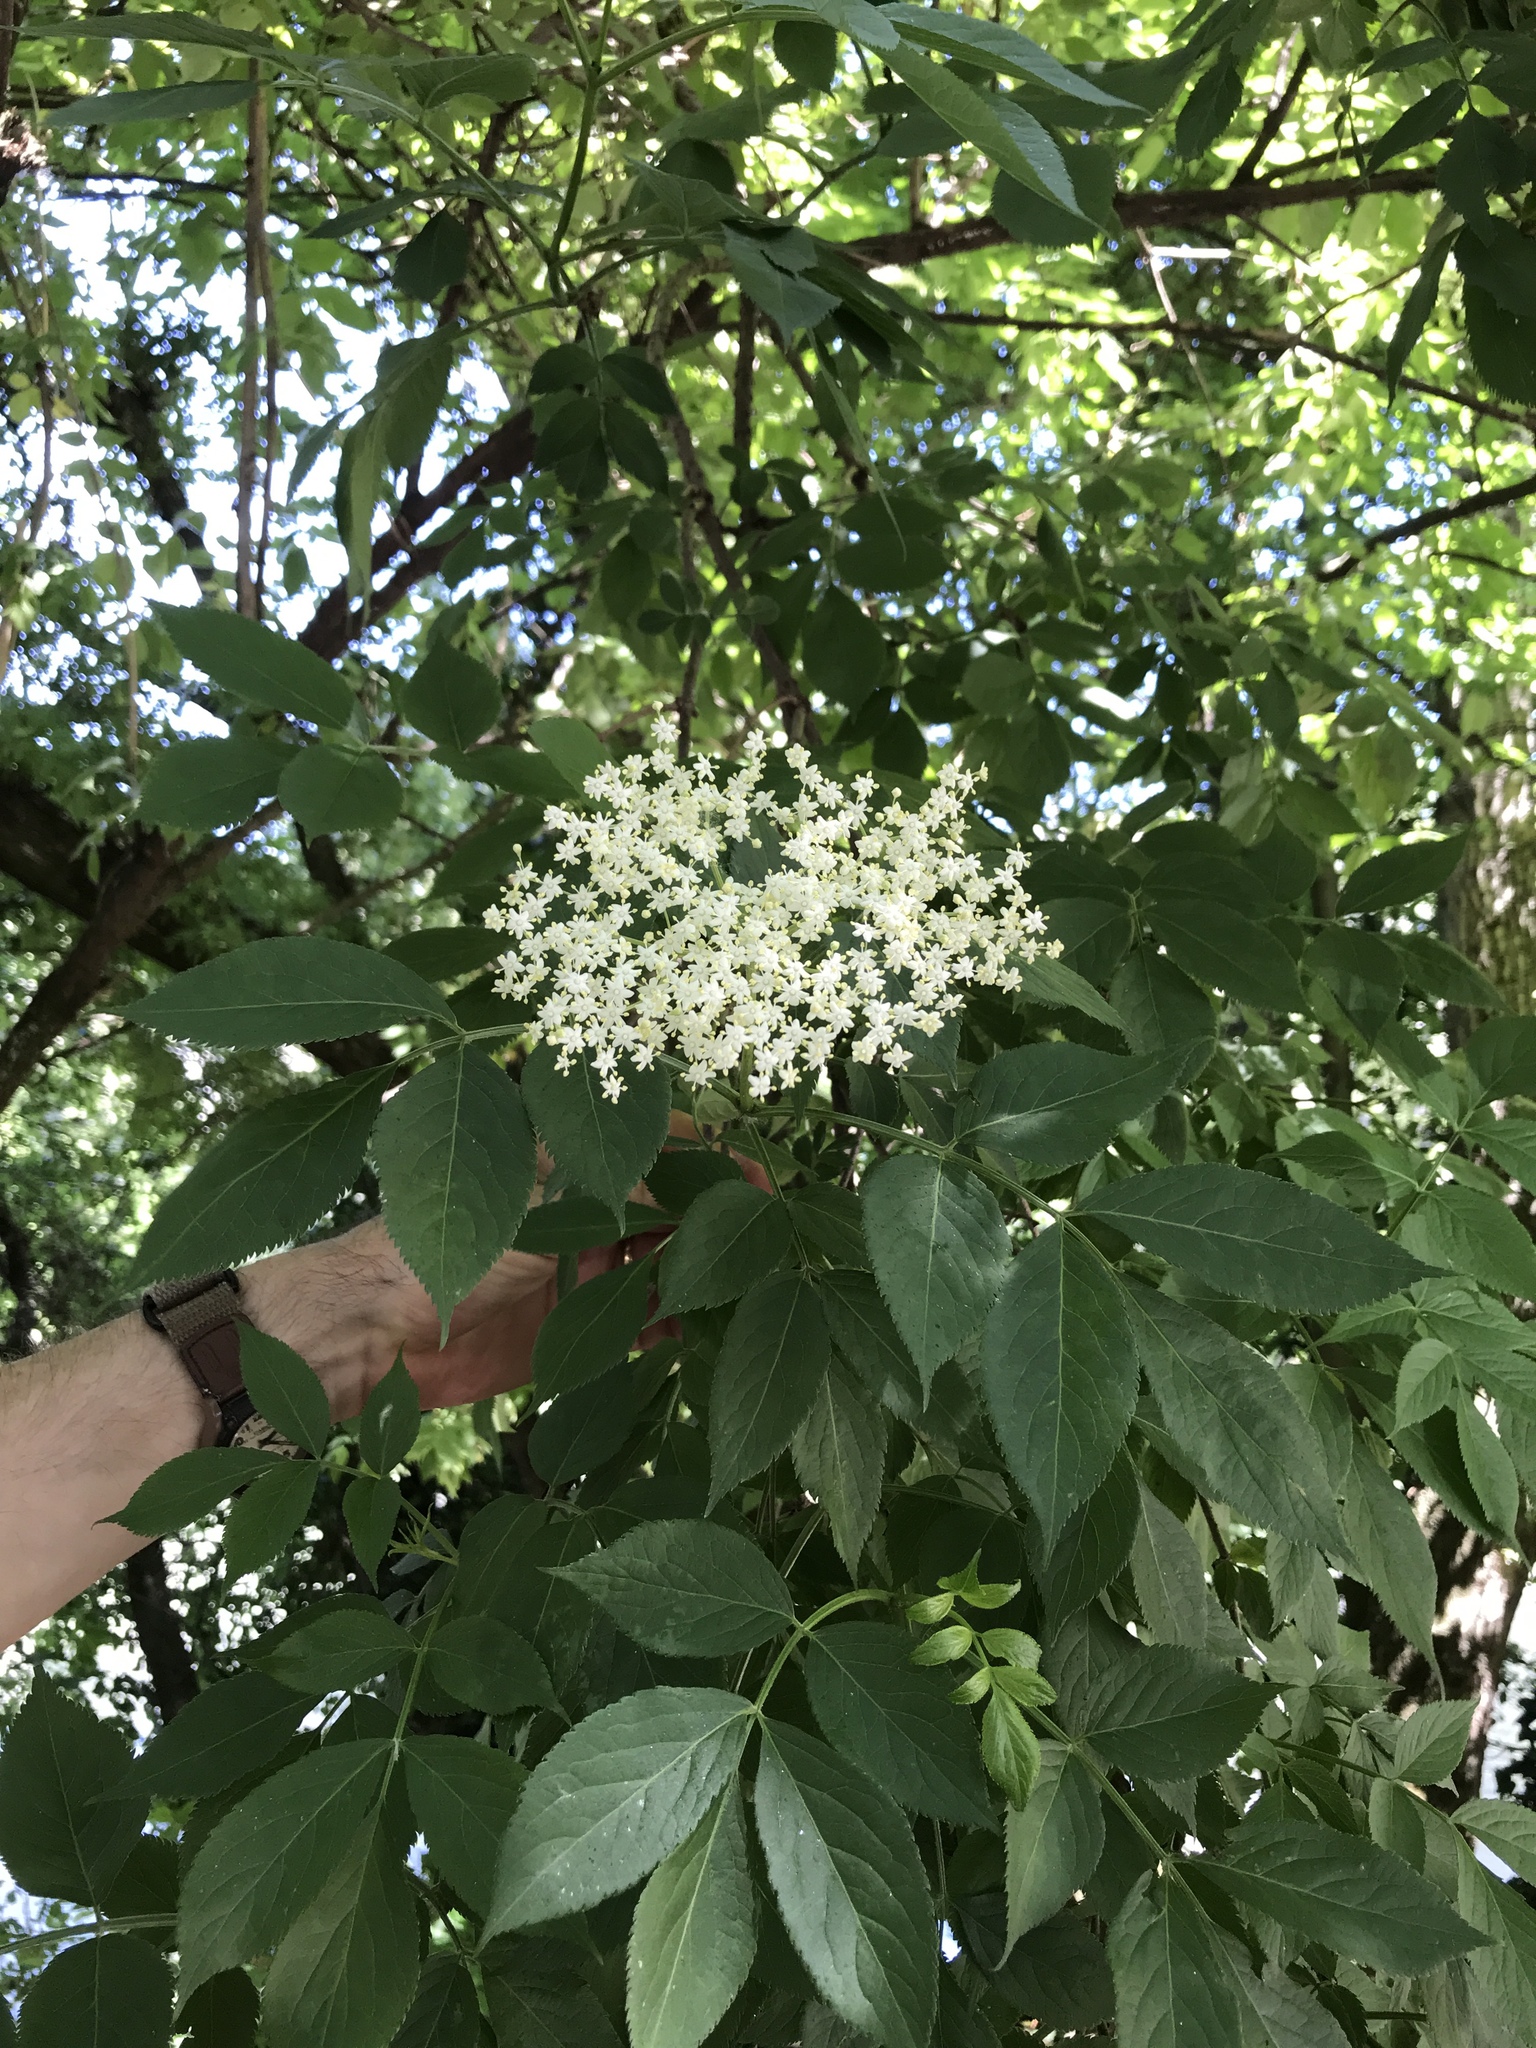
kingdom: Plantae
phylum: Tracheophyta
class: Magnoliopsida
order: Dipsacales
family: Viburnaceae
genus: Sambucus
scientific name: Sambucus nigra
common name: Elder
